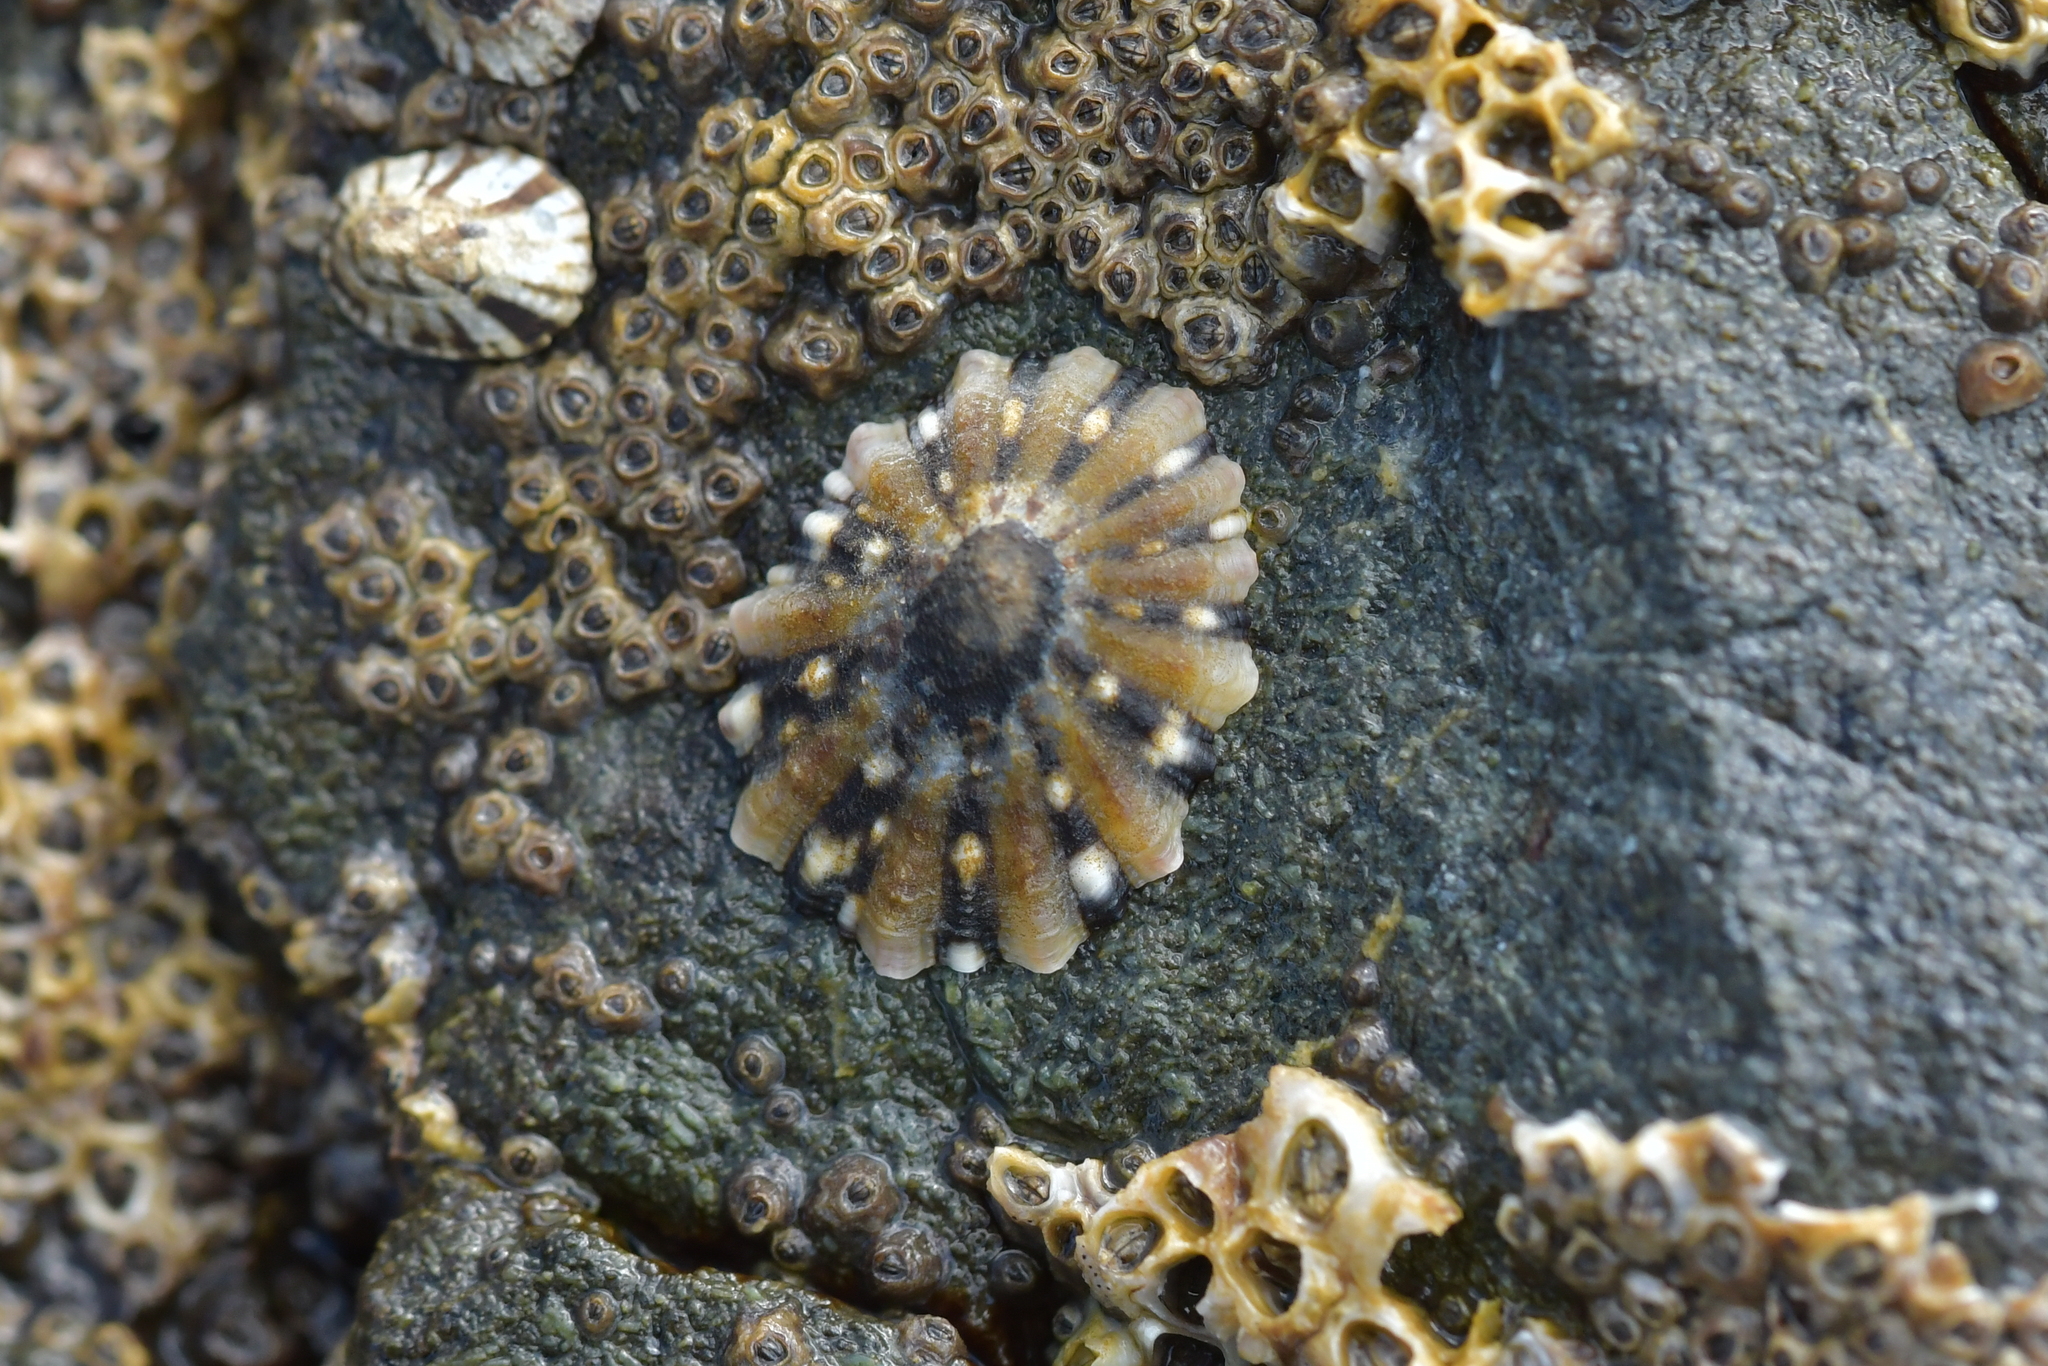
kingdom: Animalia
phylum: Mollusca
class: Gastropoda
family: Nacellidae
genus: Cellana
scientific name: Cellana ornata
